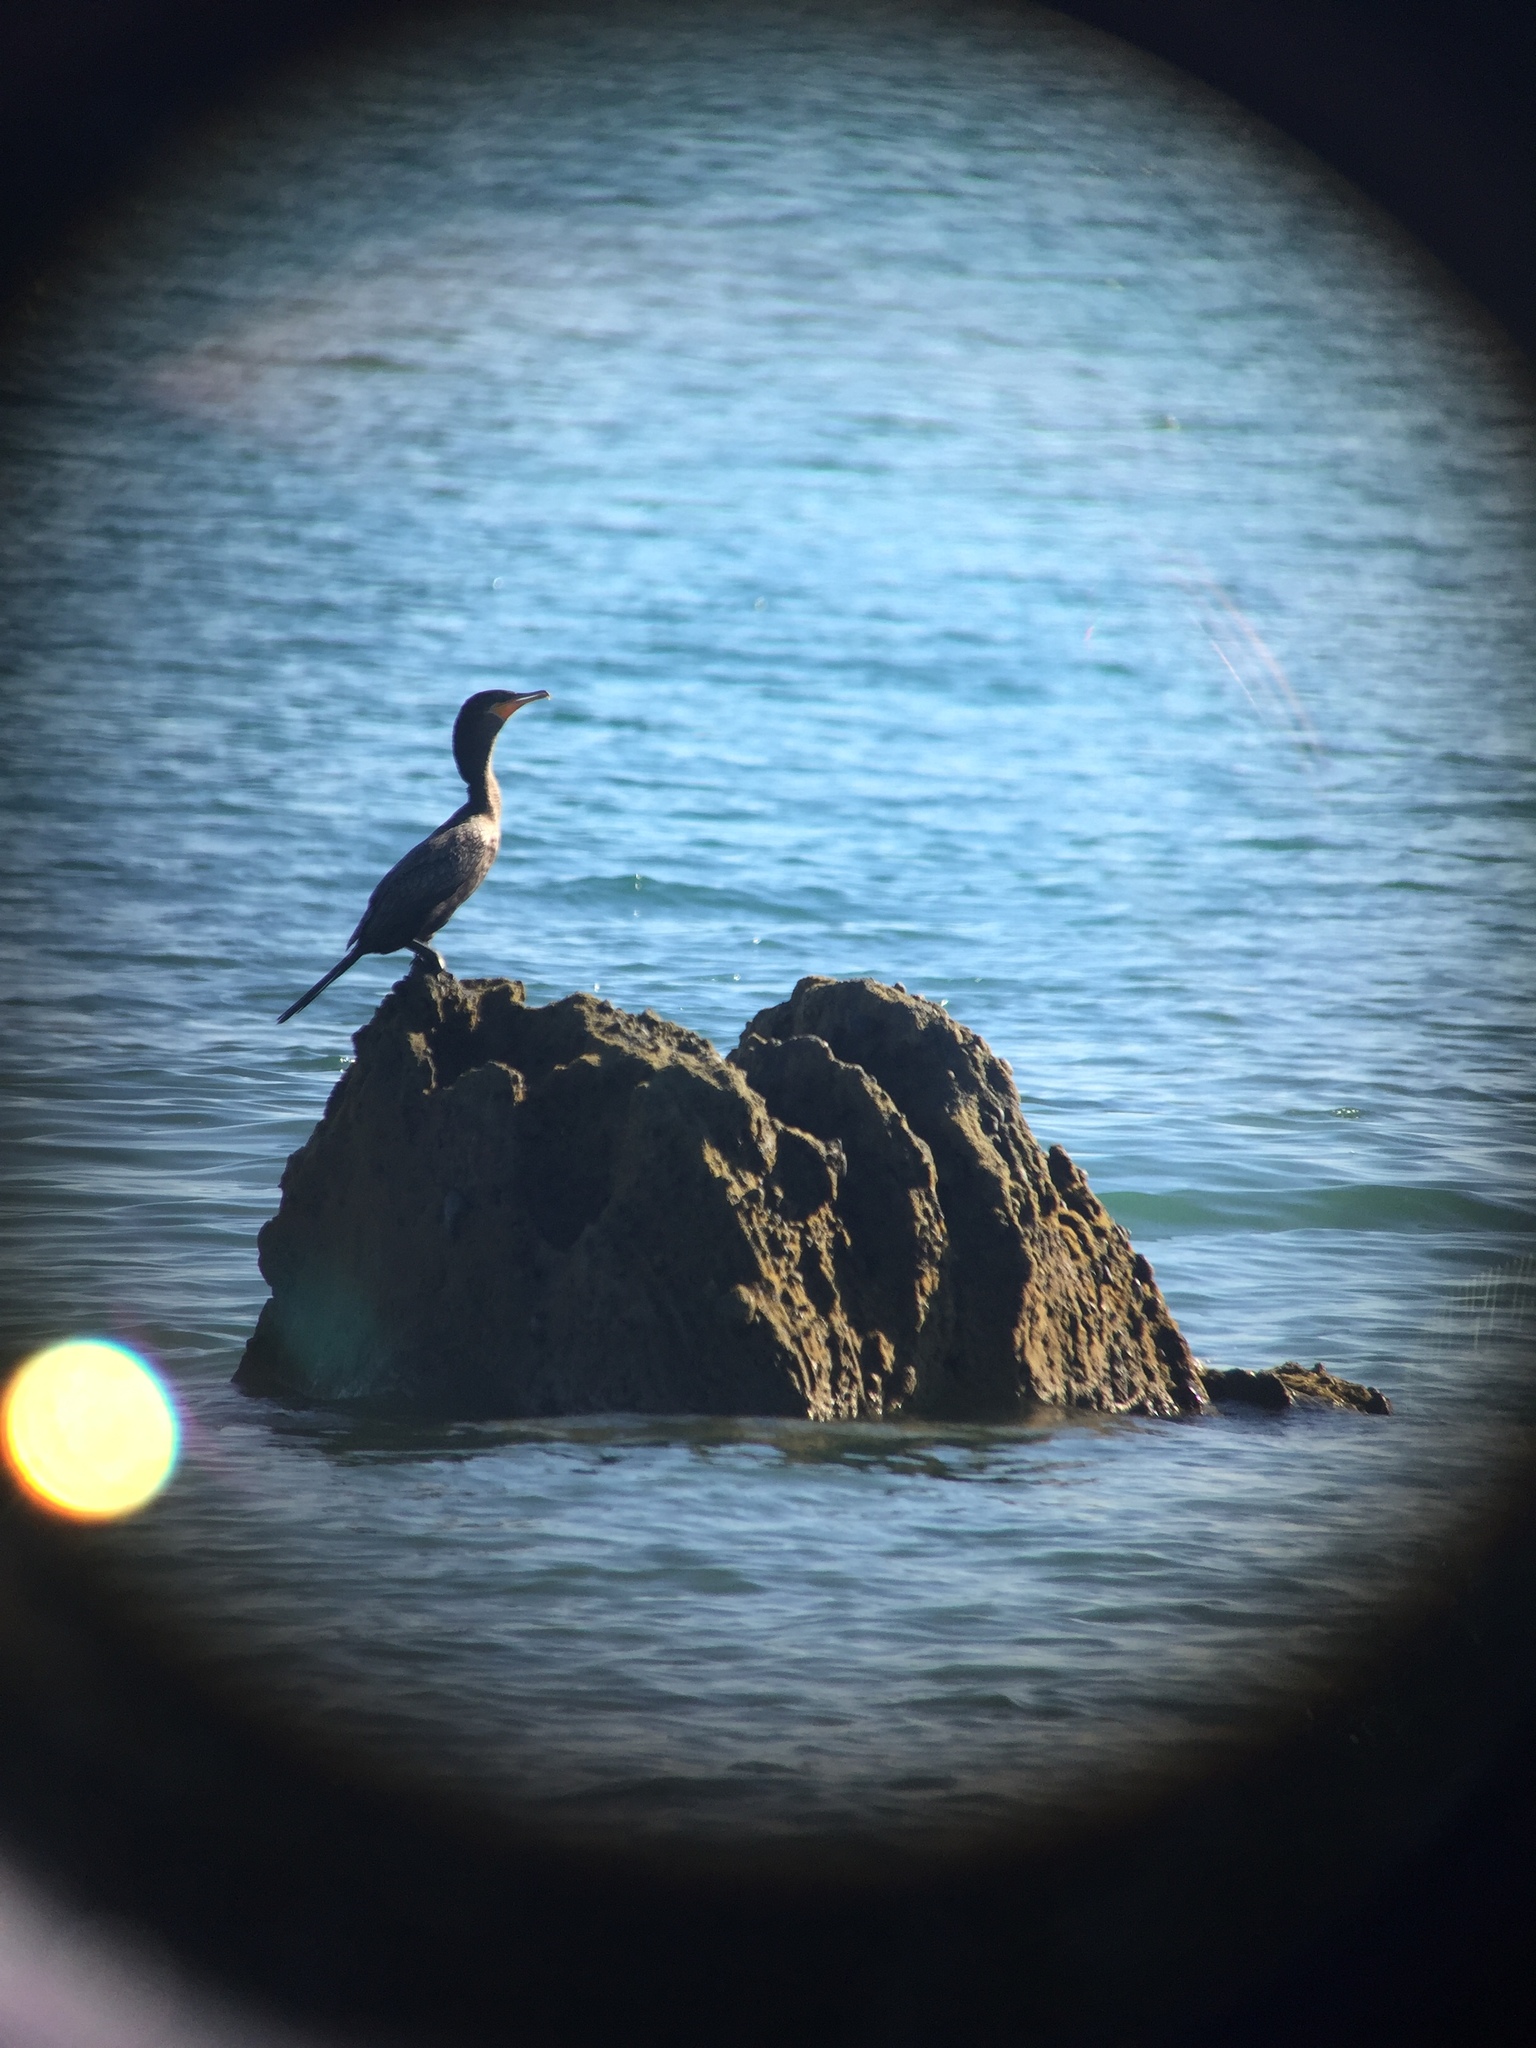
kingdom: Animalia
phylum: Chordata
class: Aves
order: Suliformes
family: Phalacrocoracidae
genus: Phalacrocorax
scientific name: Phalacrocorax brasilianus
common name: Neotropic cormorant
